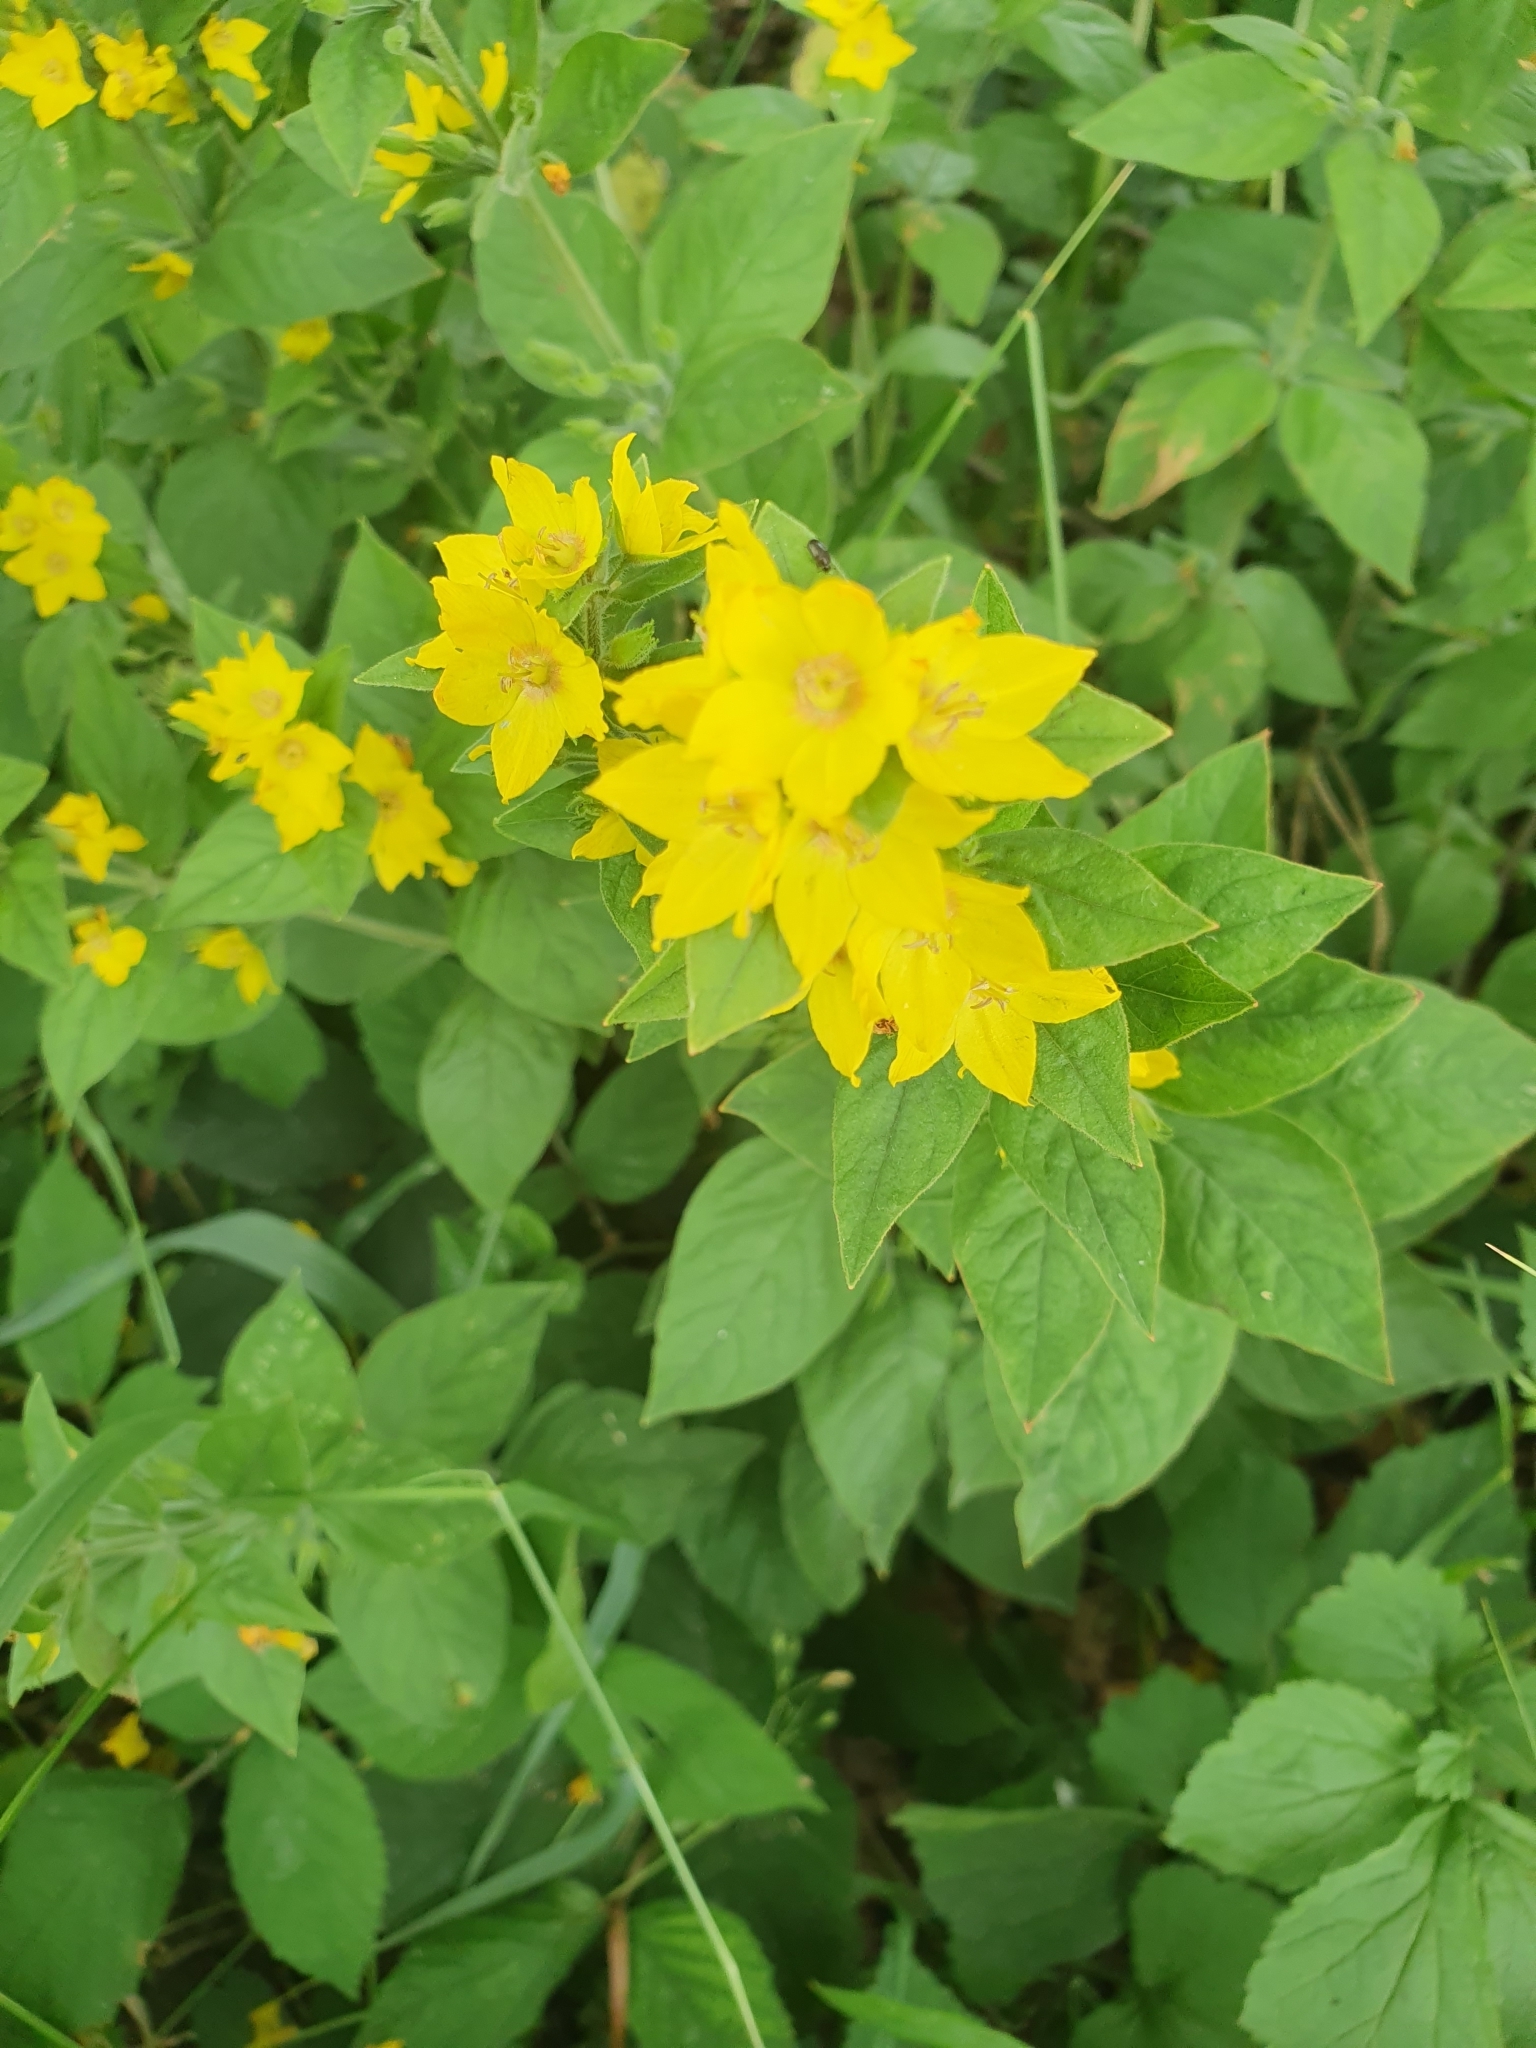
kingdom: Plantae
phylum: Tracheophyta
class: Magnoliopsida
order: Ericales
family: Primulaceae
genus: Lysimachia
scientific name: Lysimachia punctata
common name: Dotted loosestrife
